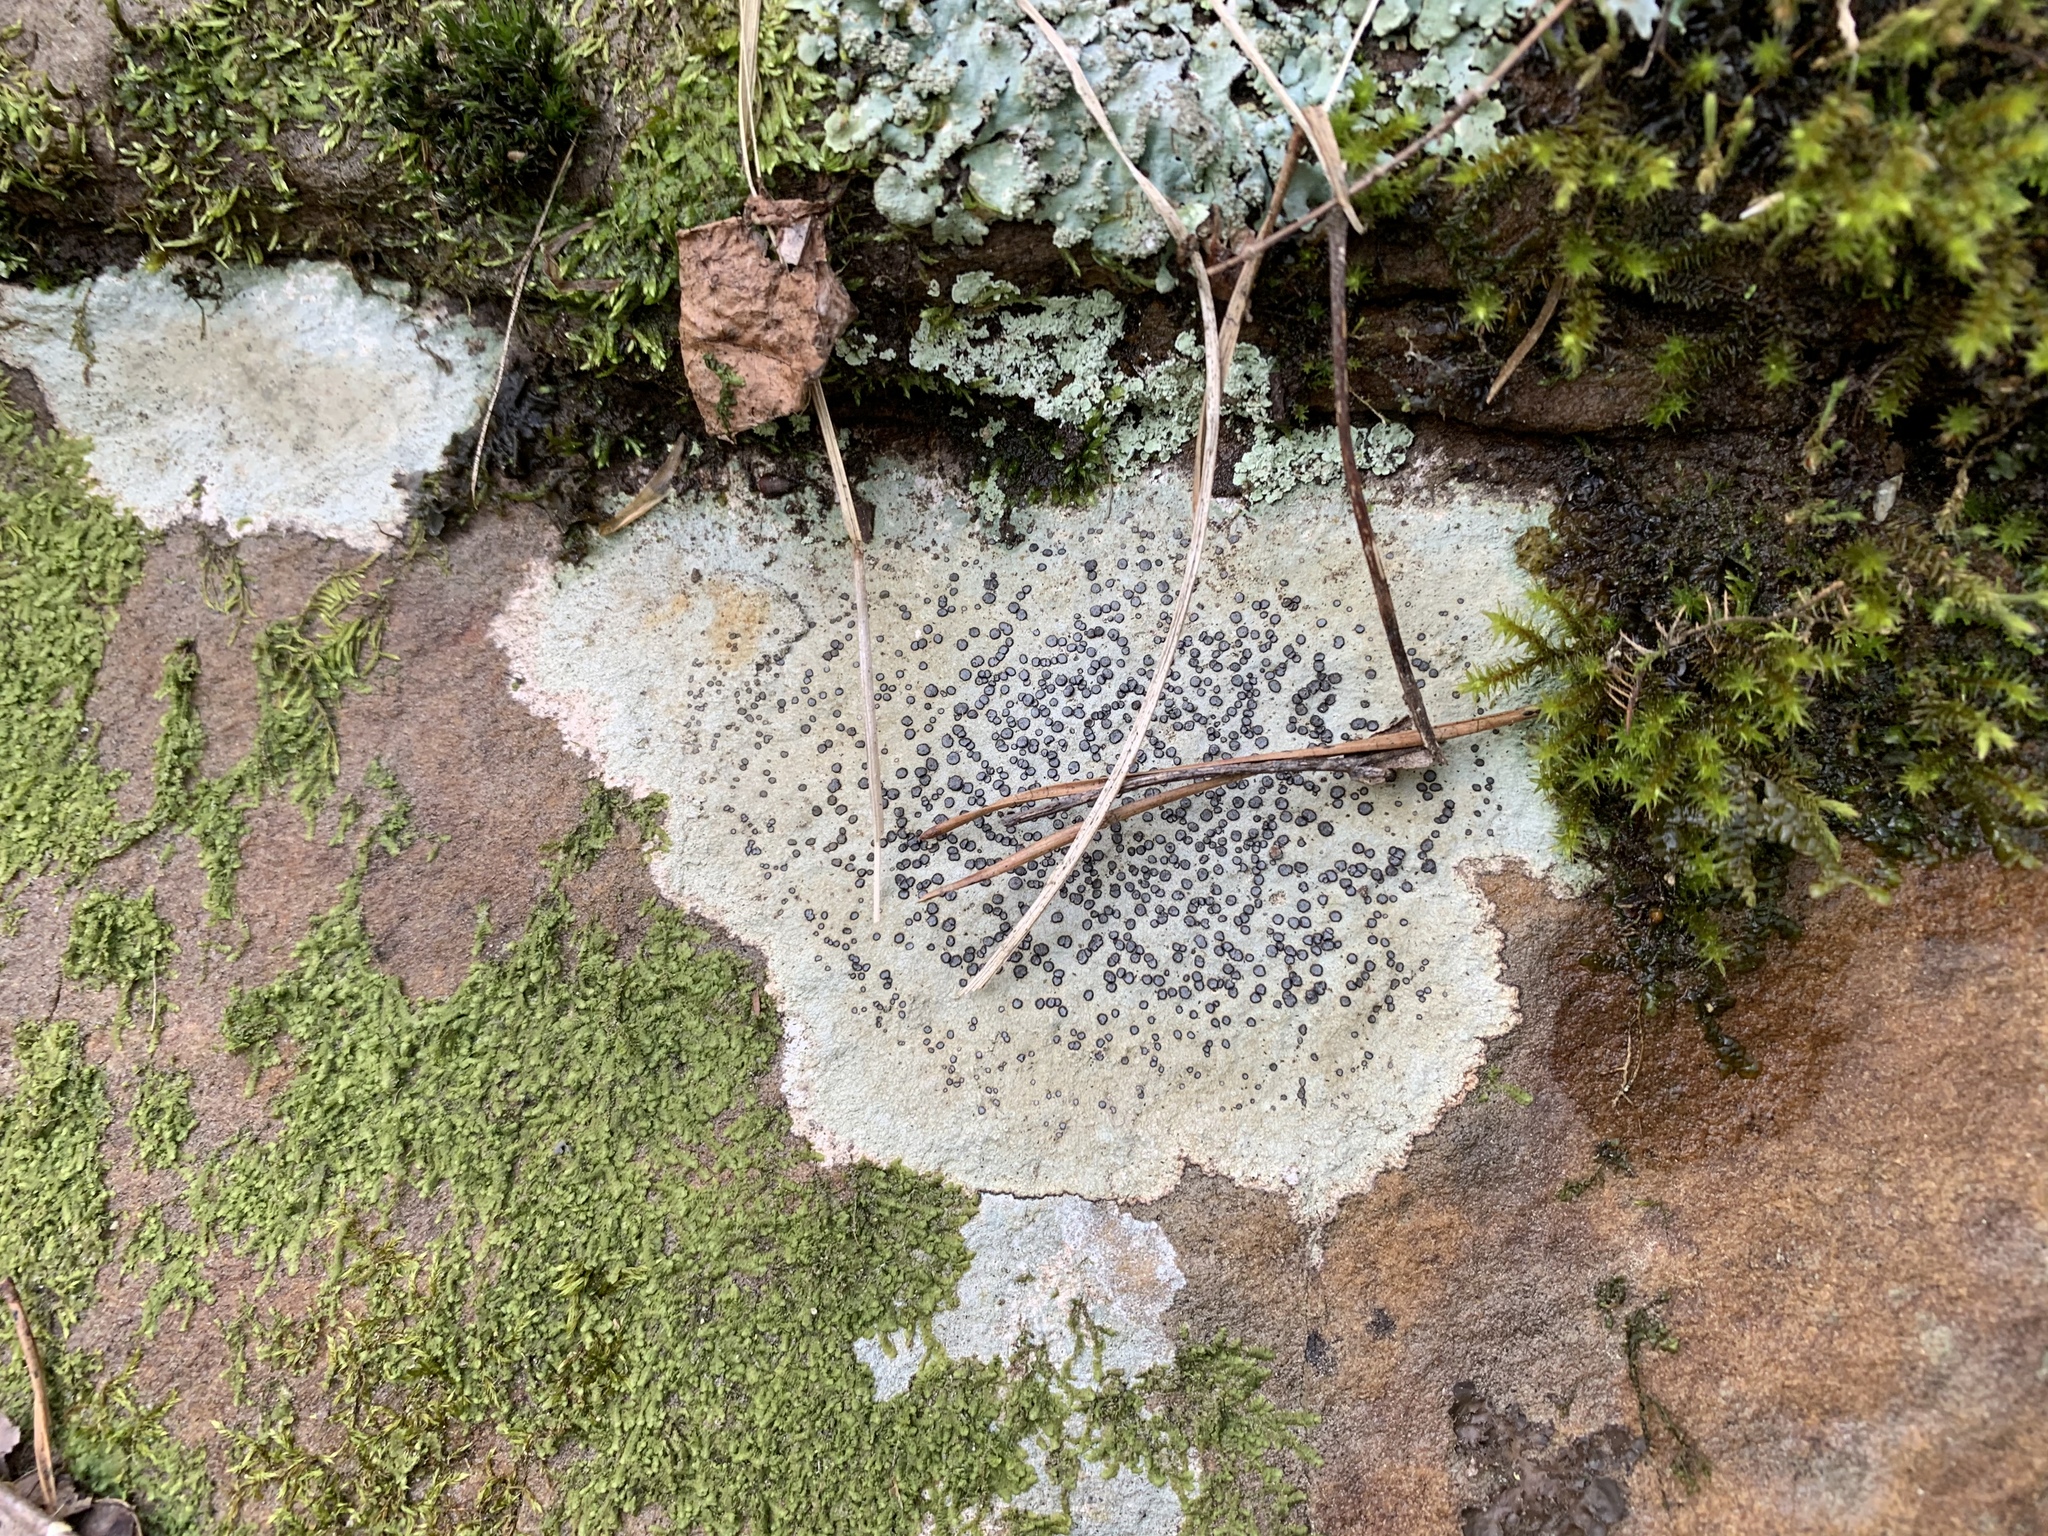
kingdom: Fungi
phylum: Ascomycota
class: Lecanoromycetes
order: Lecideales
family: Lecideaceae
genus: Porpidia
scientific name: Porpidia albocaerulescens
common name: Smokey-eyed boulder lichen
